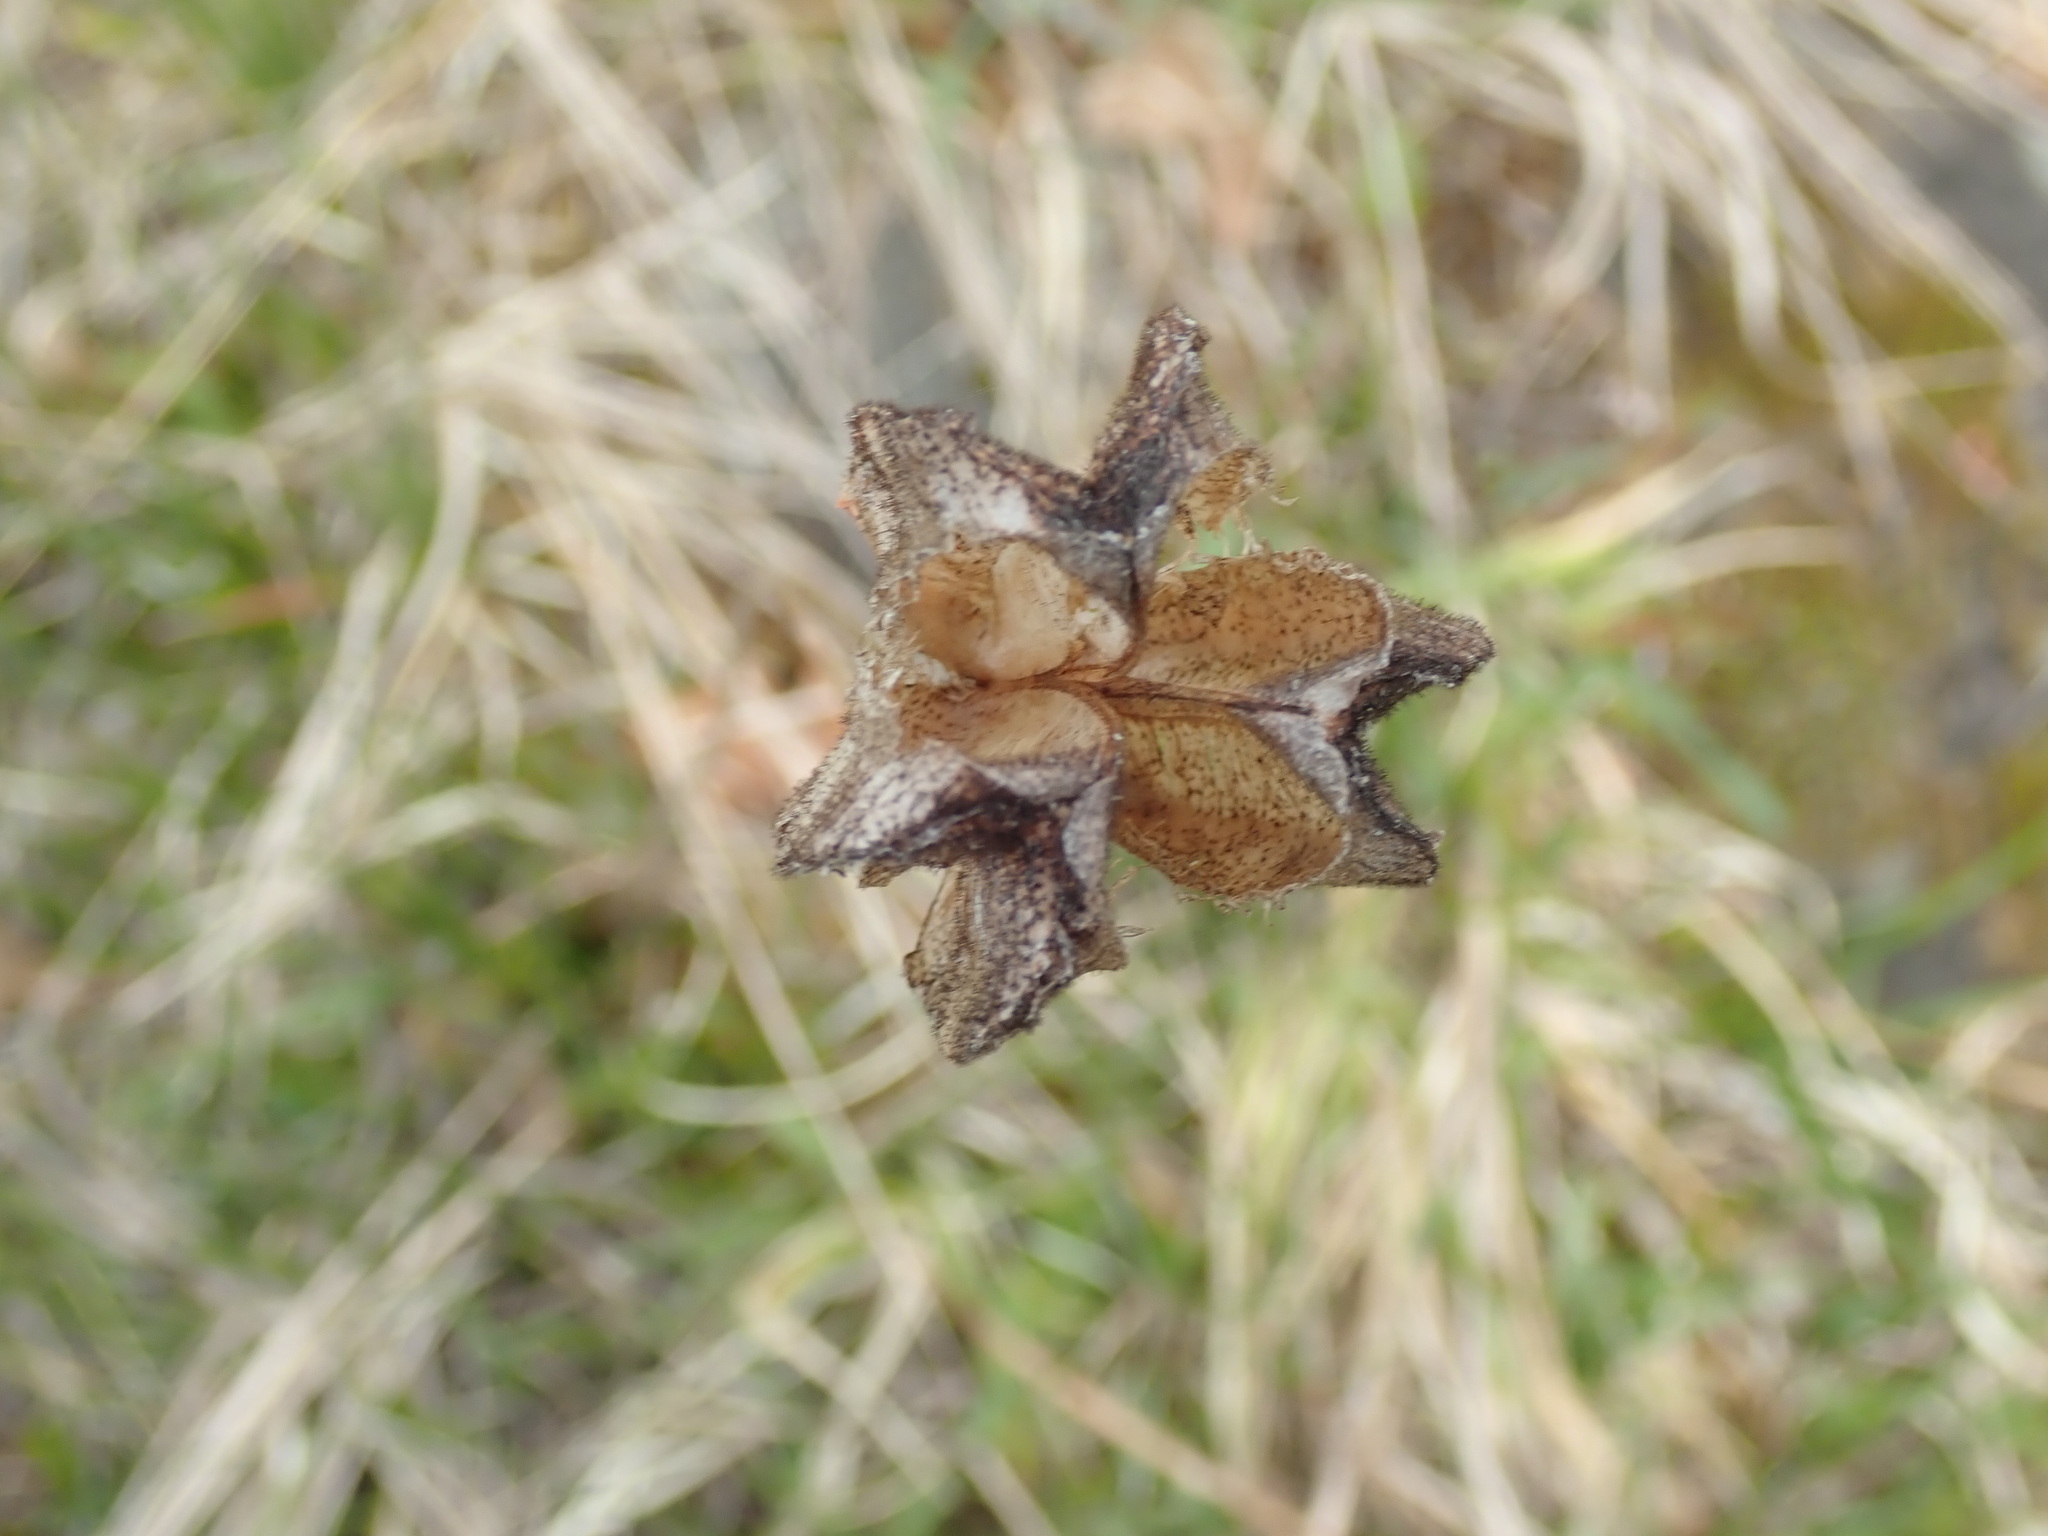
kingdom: Plantae
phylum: Tracheophyta
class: Liliopsida
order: Liliales
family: Liliaceae
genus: Fritillaria
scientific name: Fritillaria affinis
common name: Ojai fritillary
